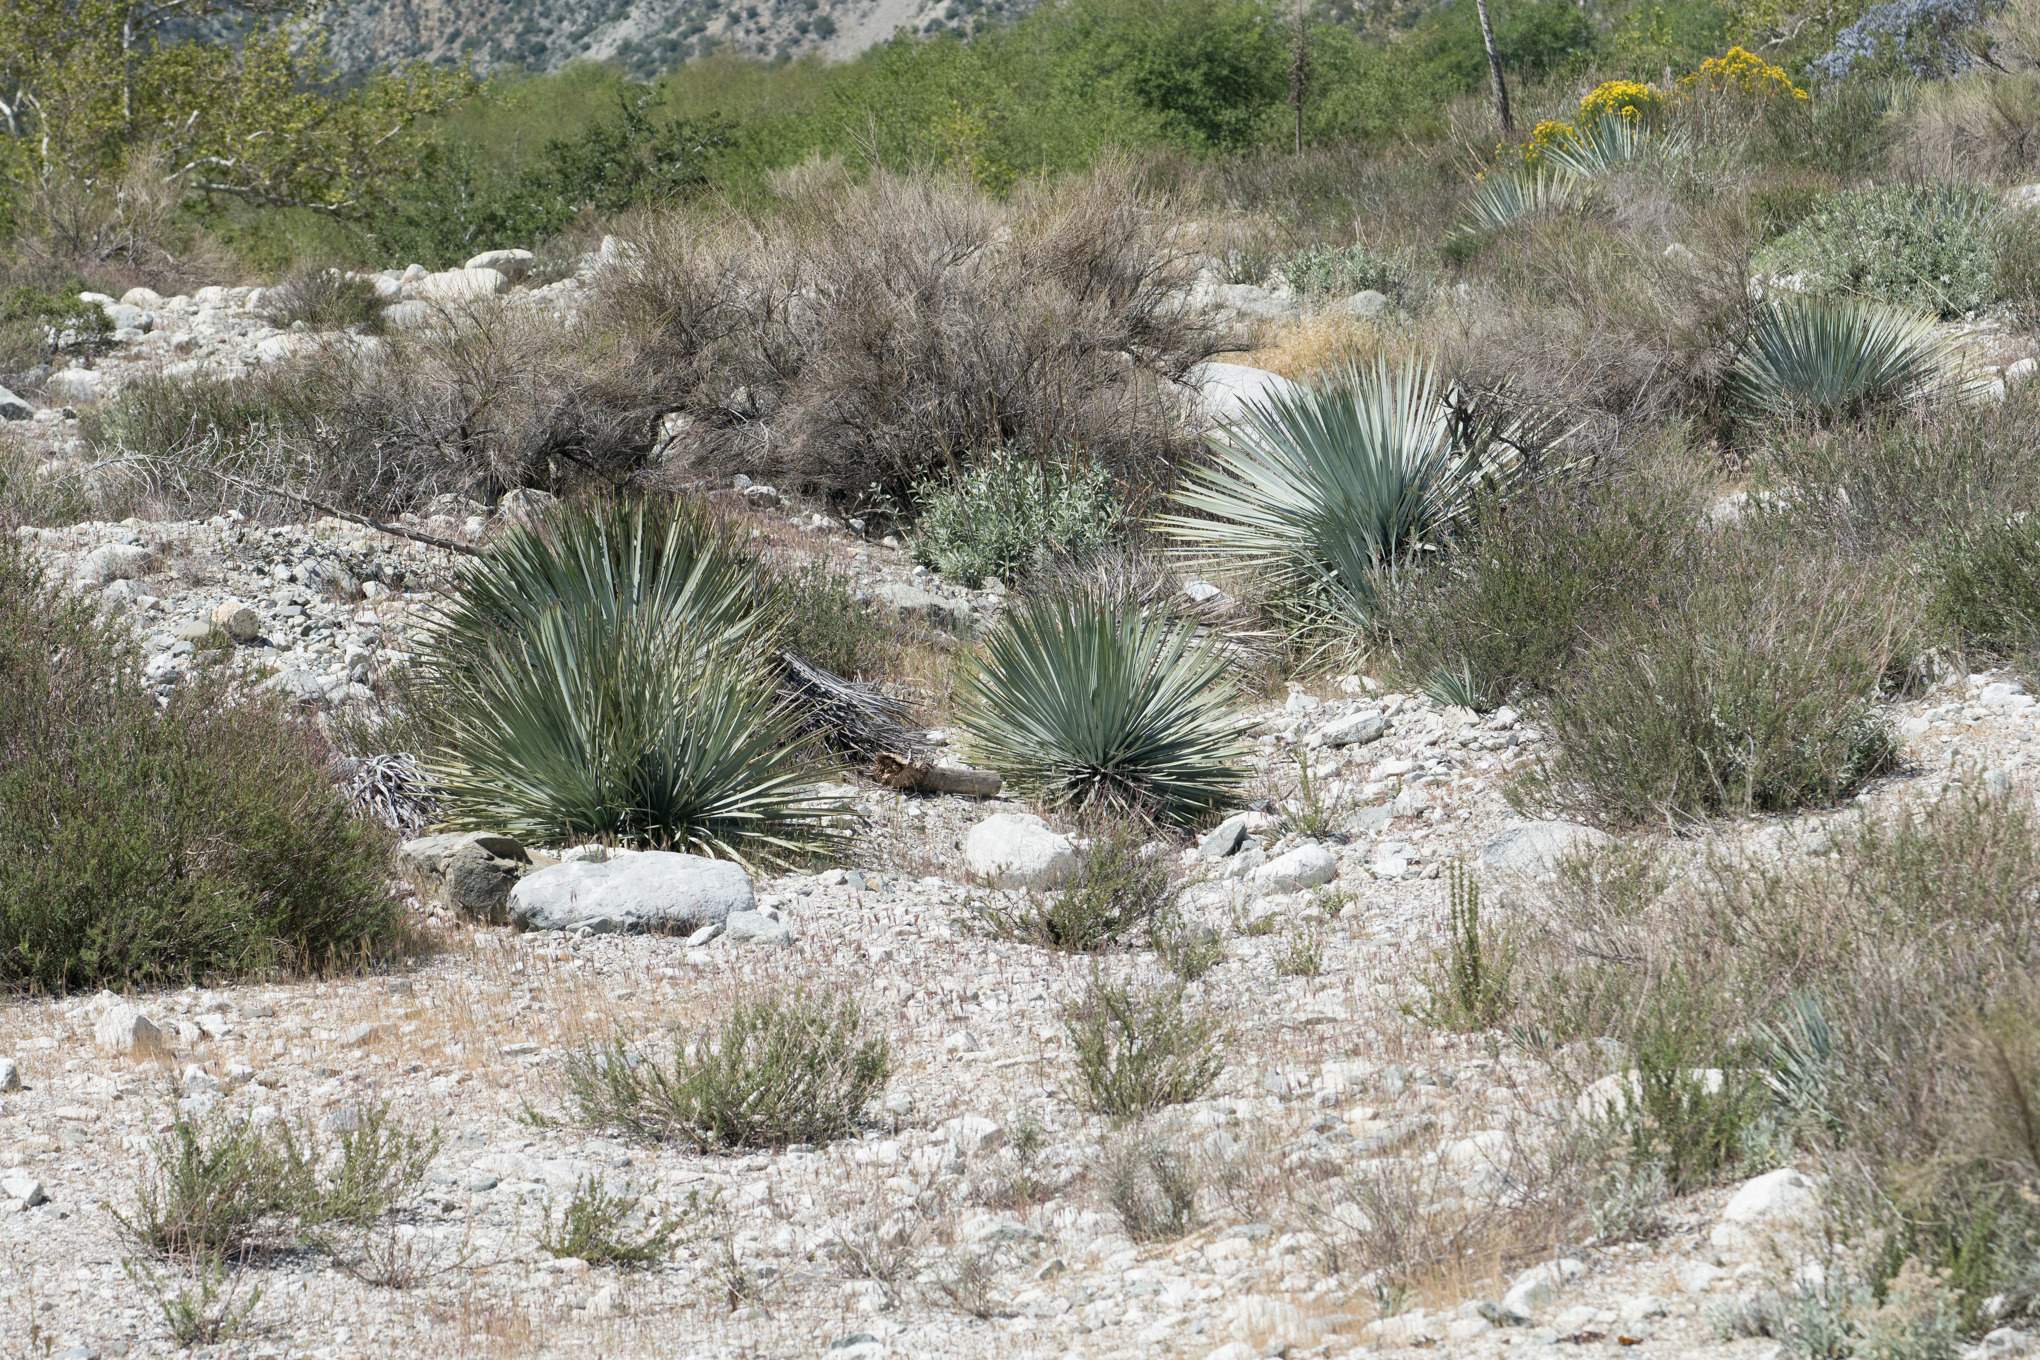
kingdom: Plantae
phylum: Tracheophyta
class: Liliopsida
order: Asparagales
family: Asparagaceae
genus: Hesperoyucca
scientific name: Hesperoyucca whipplei
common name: Our lord's-candle
